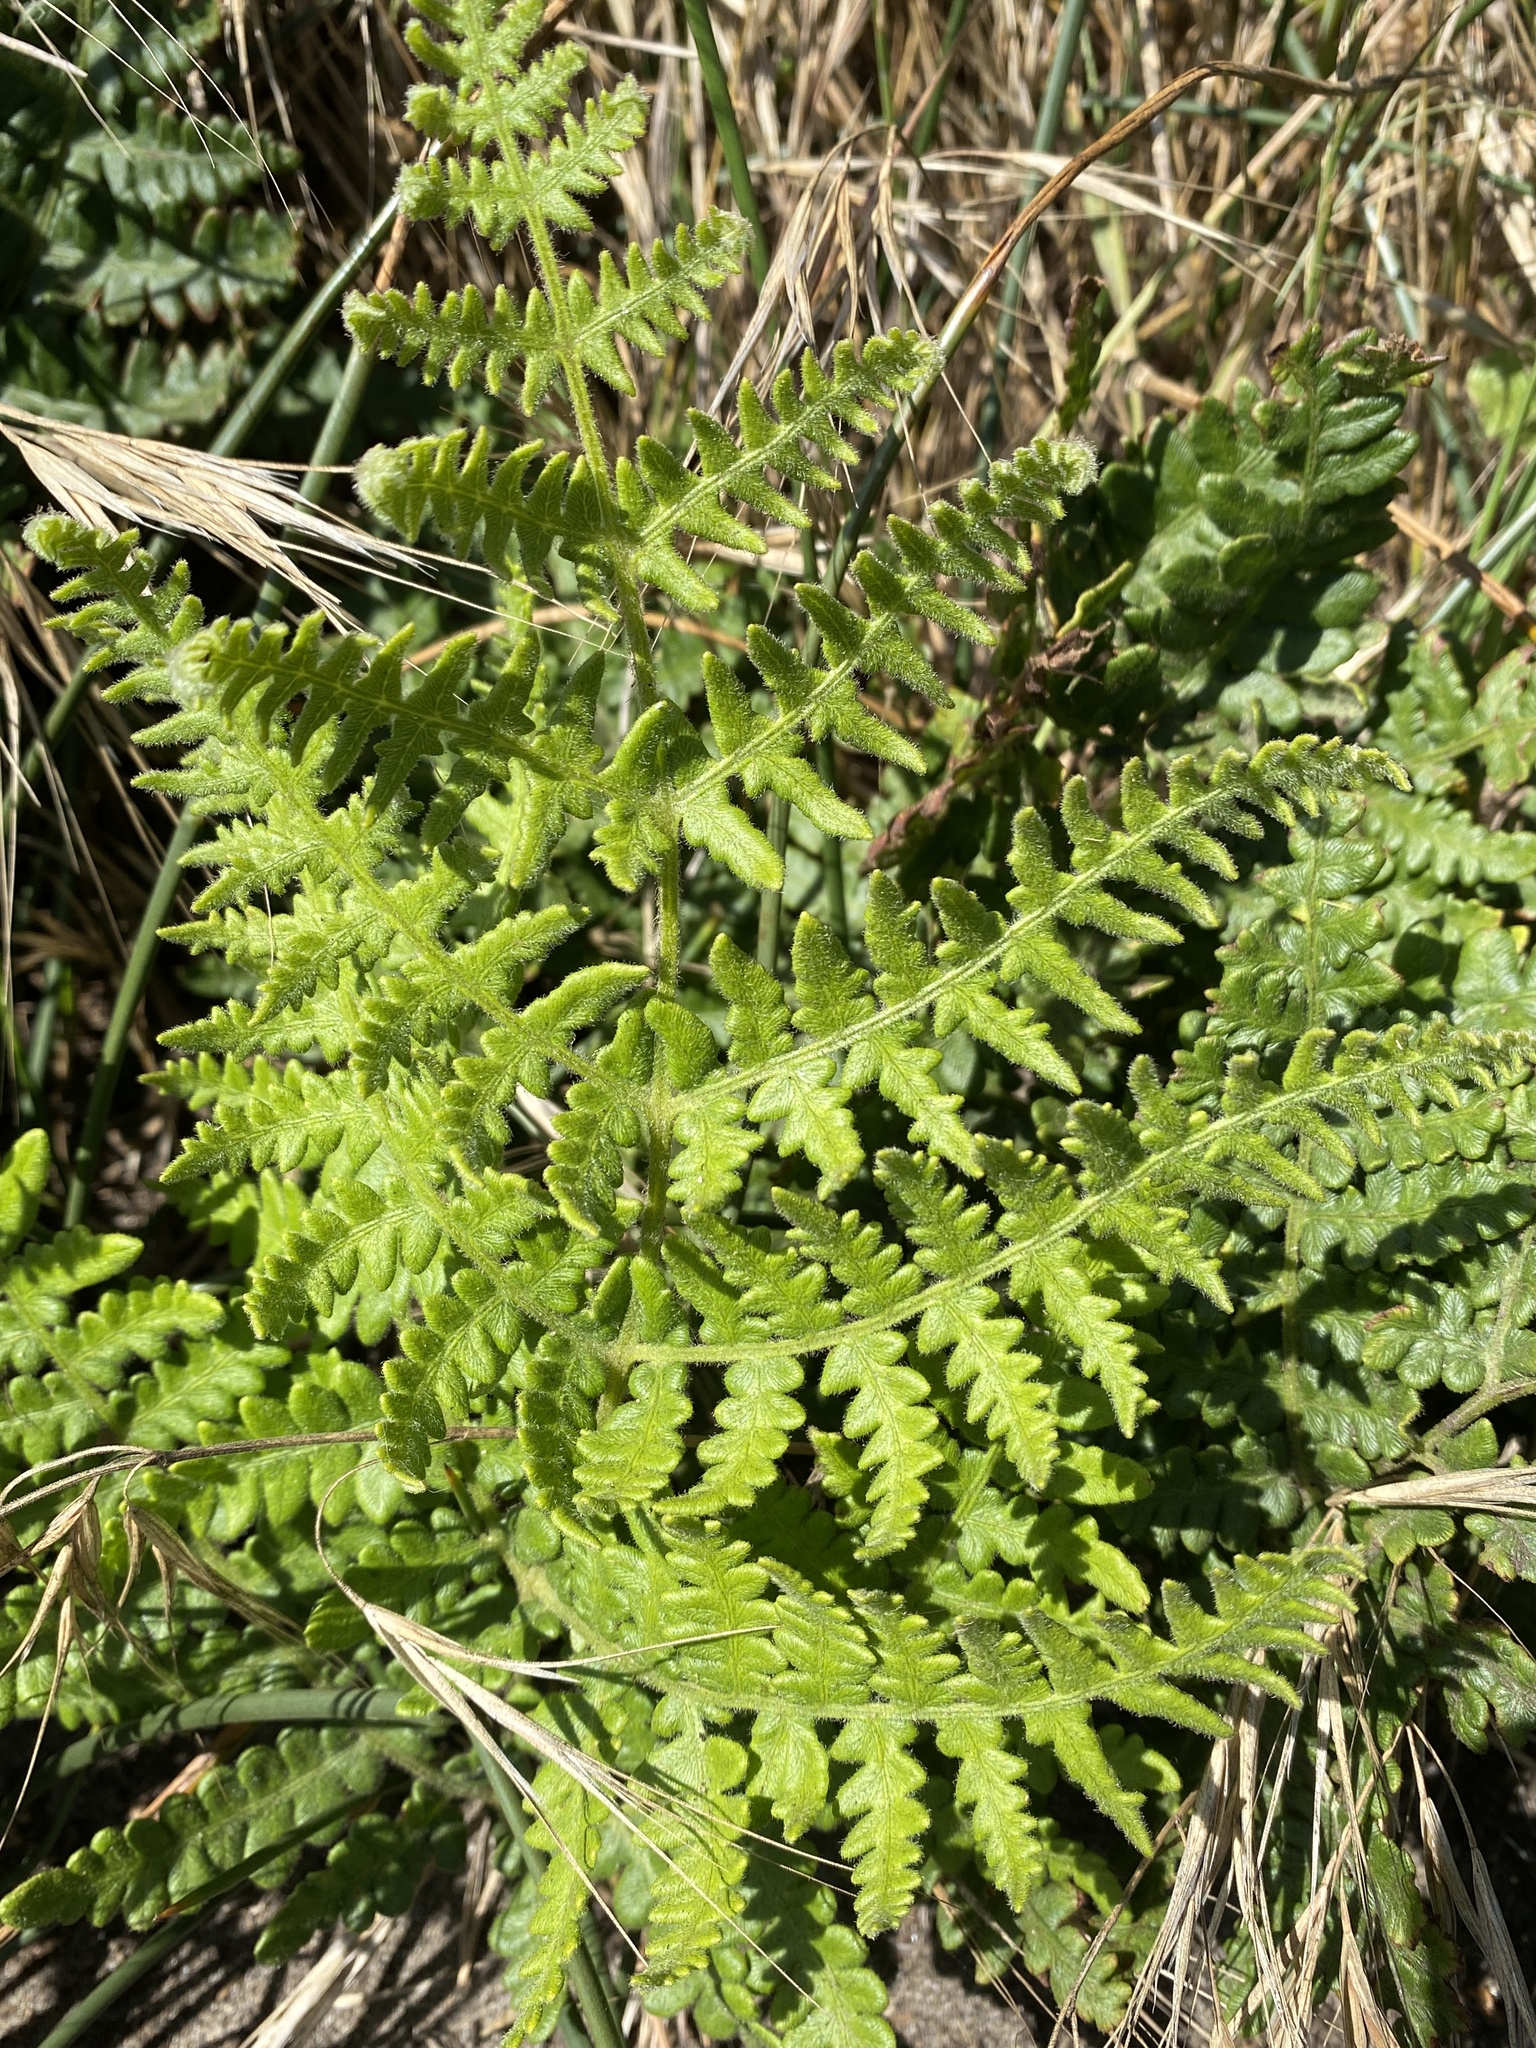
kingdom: Plantae
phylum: Tracheophyta
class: Polypodiopsida
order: Polypodiales
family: Dennstaedtiaceae
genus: Pteridium
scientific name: Pteridium aquilinum
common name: Bracken
